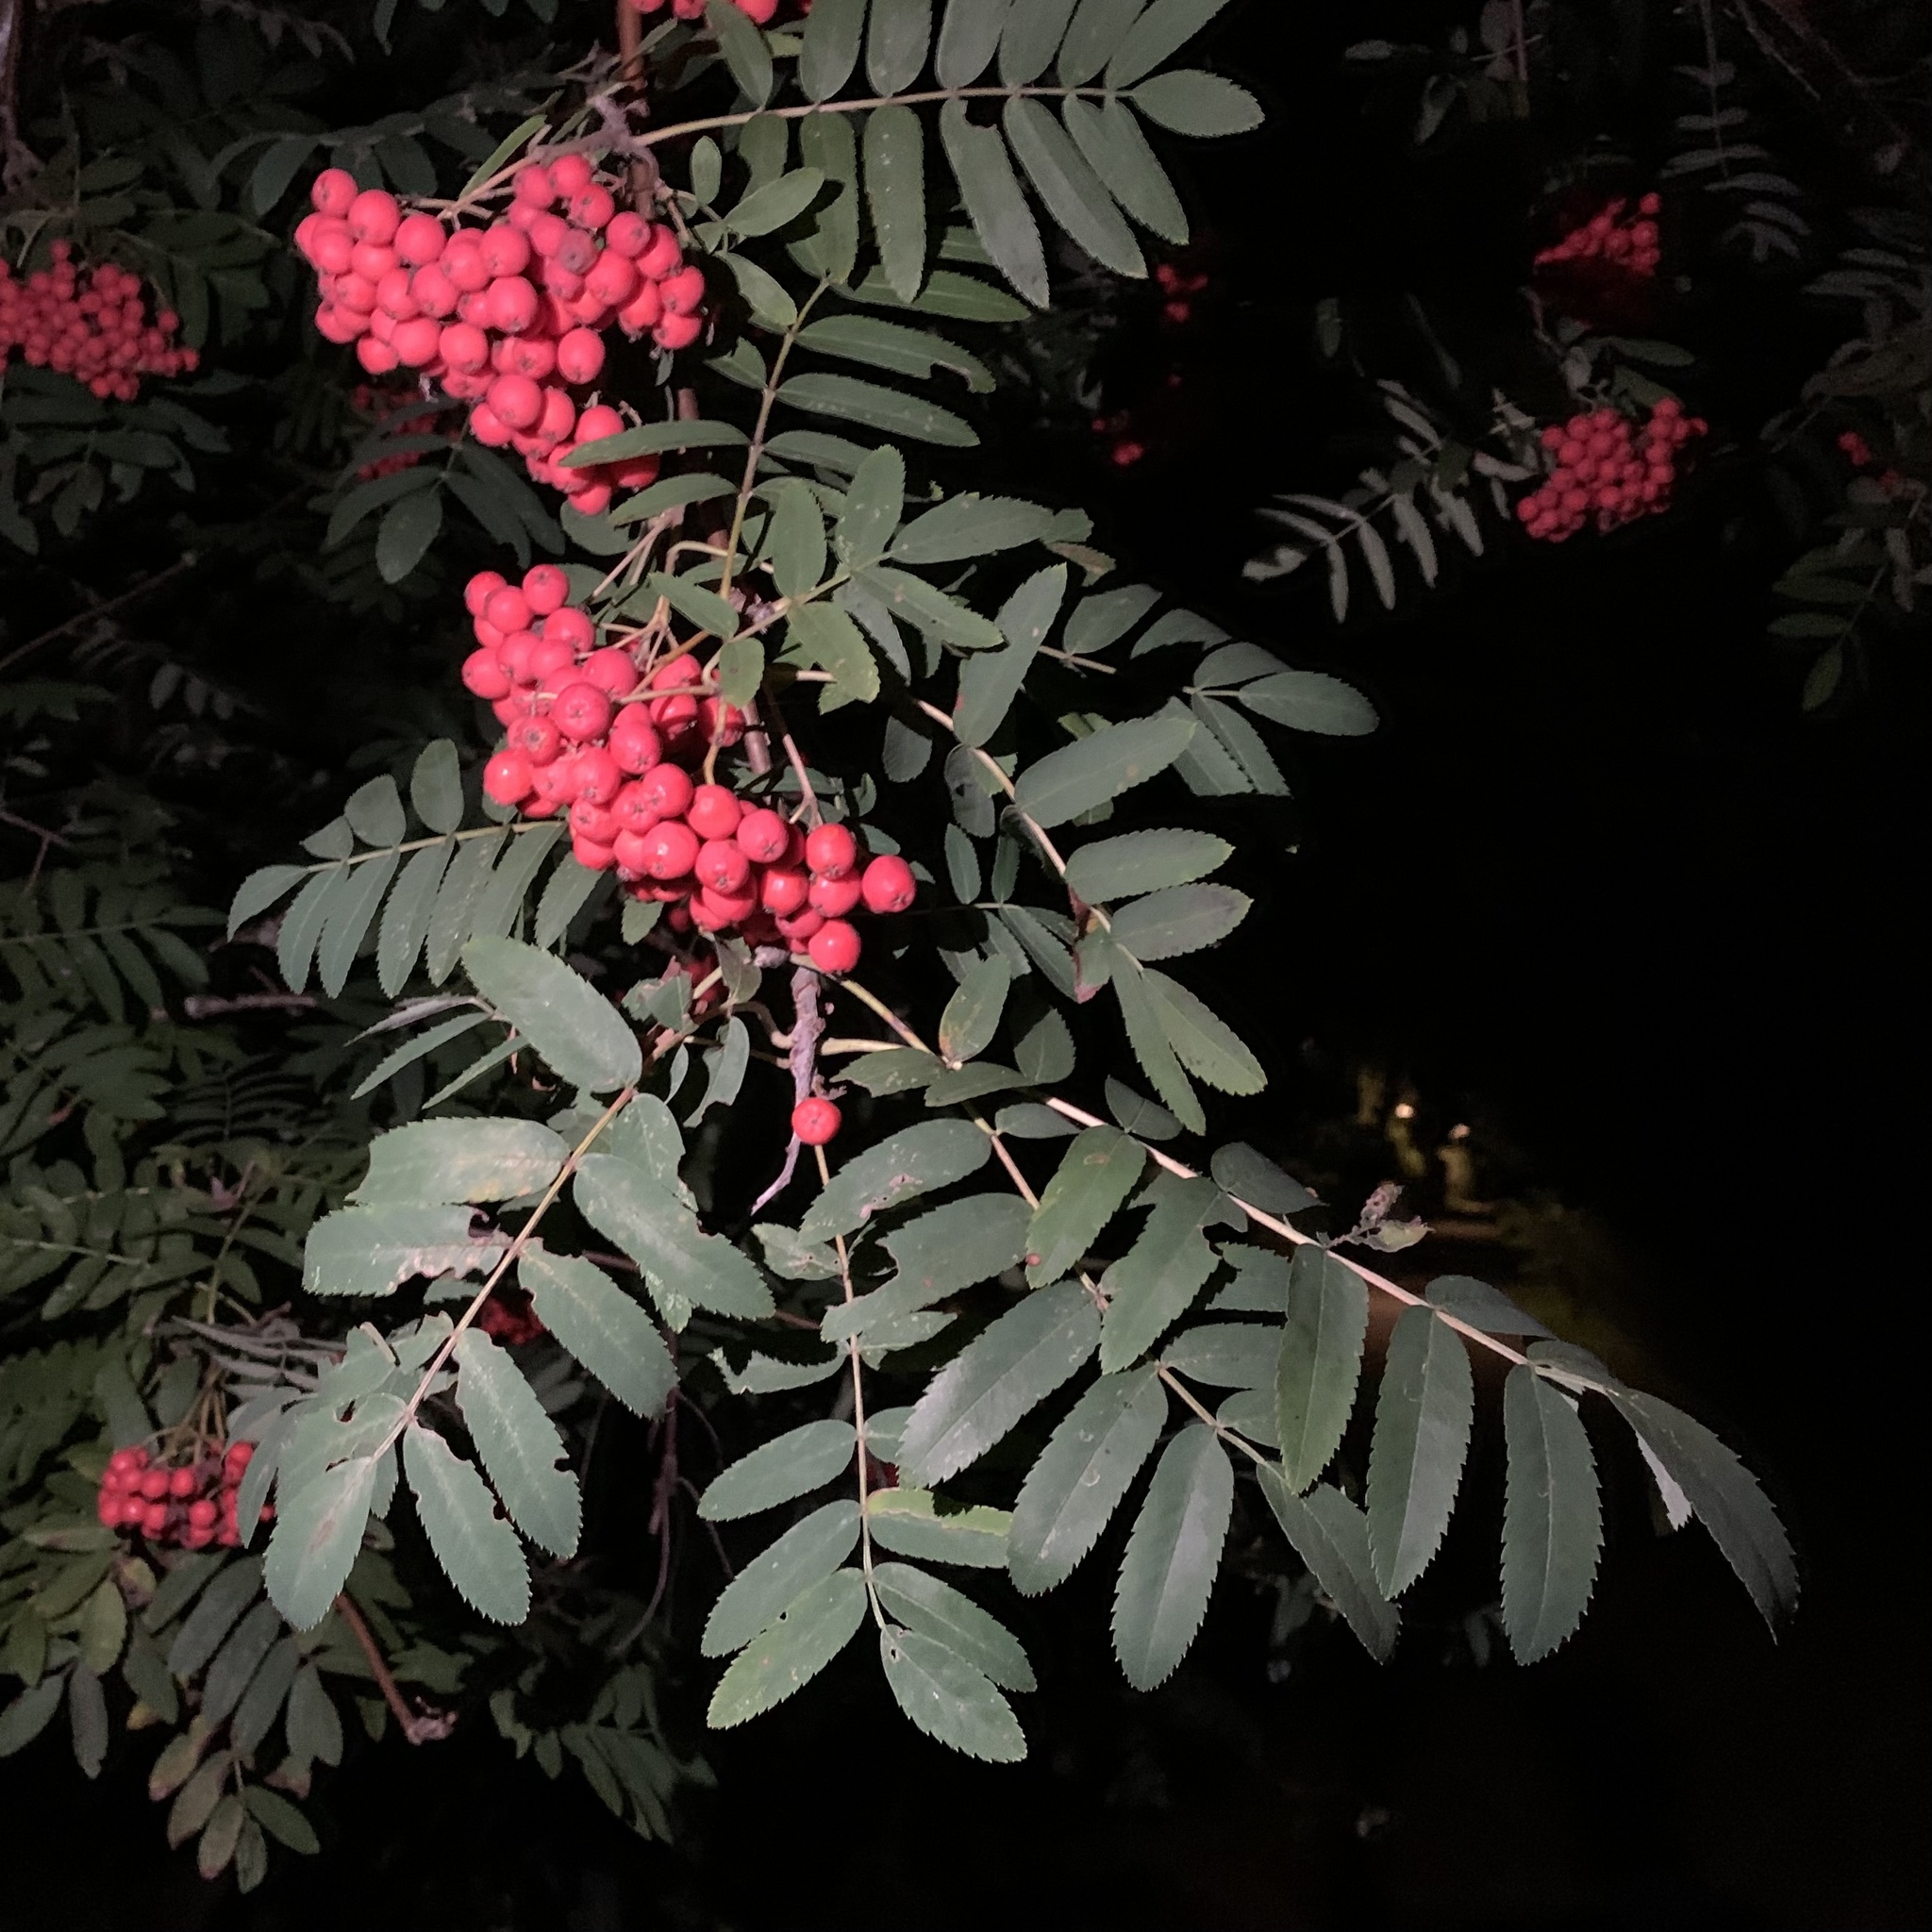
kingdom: Plantae
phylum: Tracheophyta
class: Magnoliopsida
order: Rosales
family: Rosaceae
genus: Sorbus
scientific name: Sorbus aucuparia
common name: Rowan
